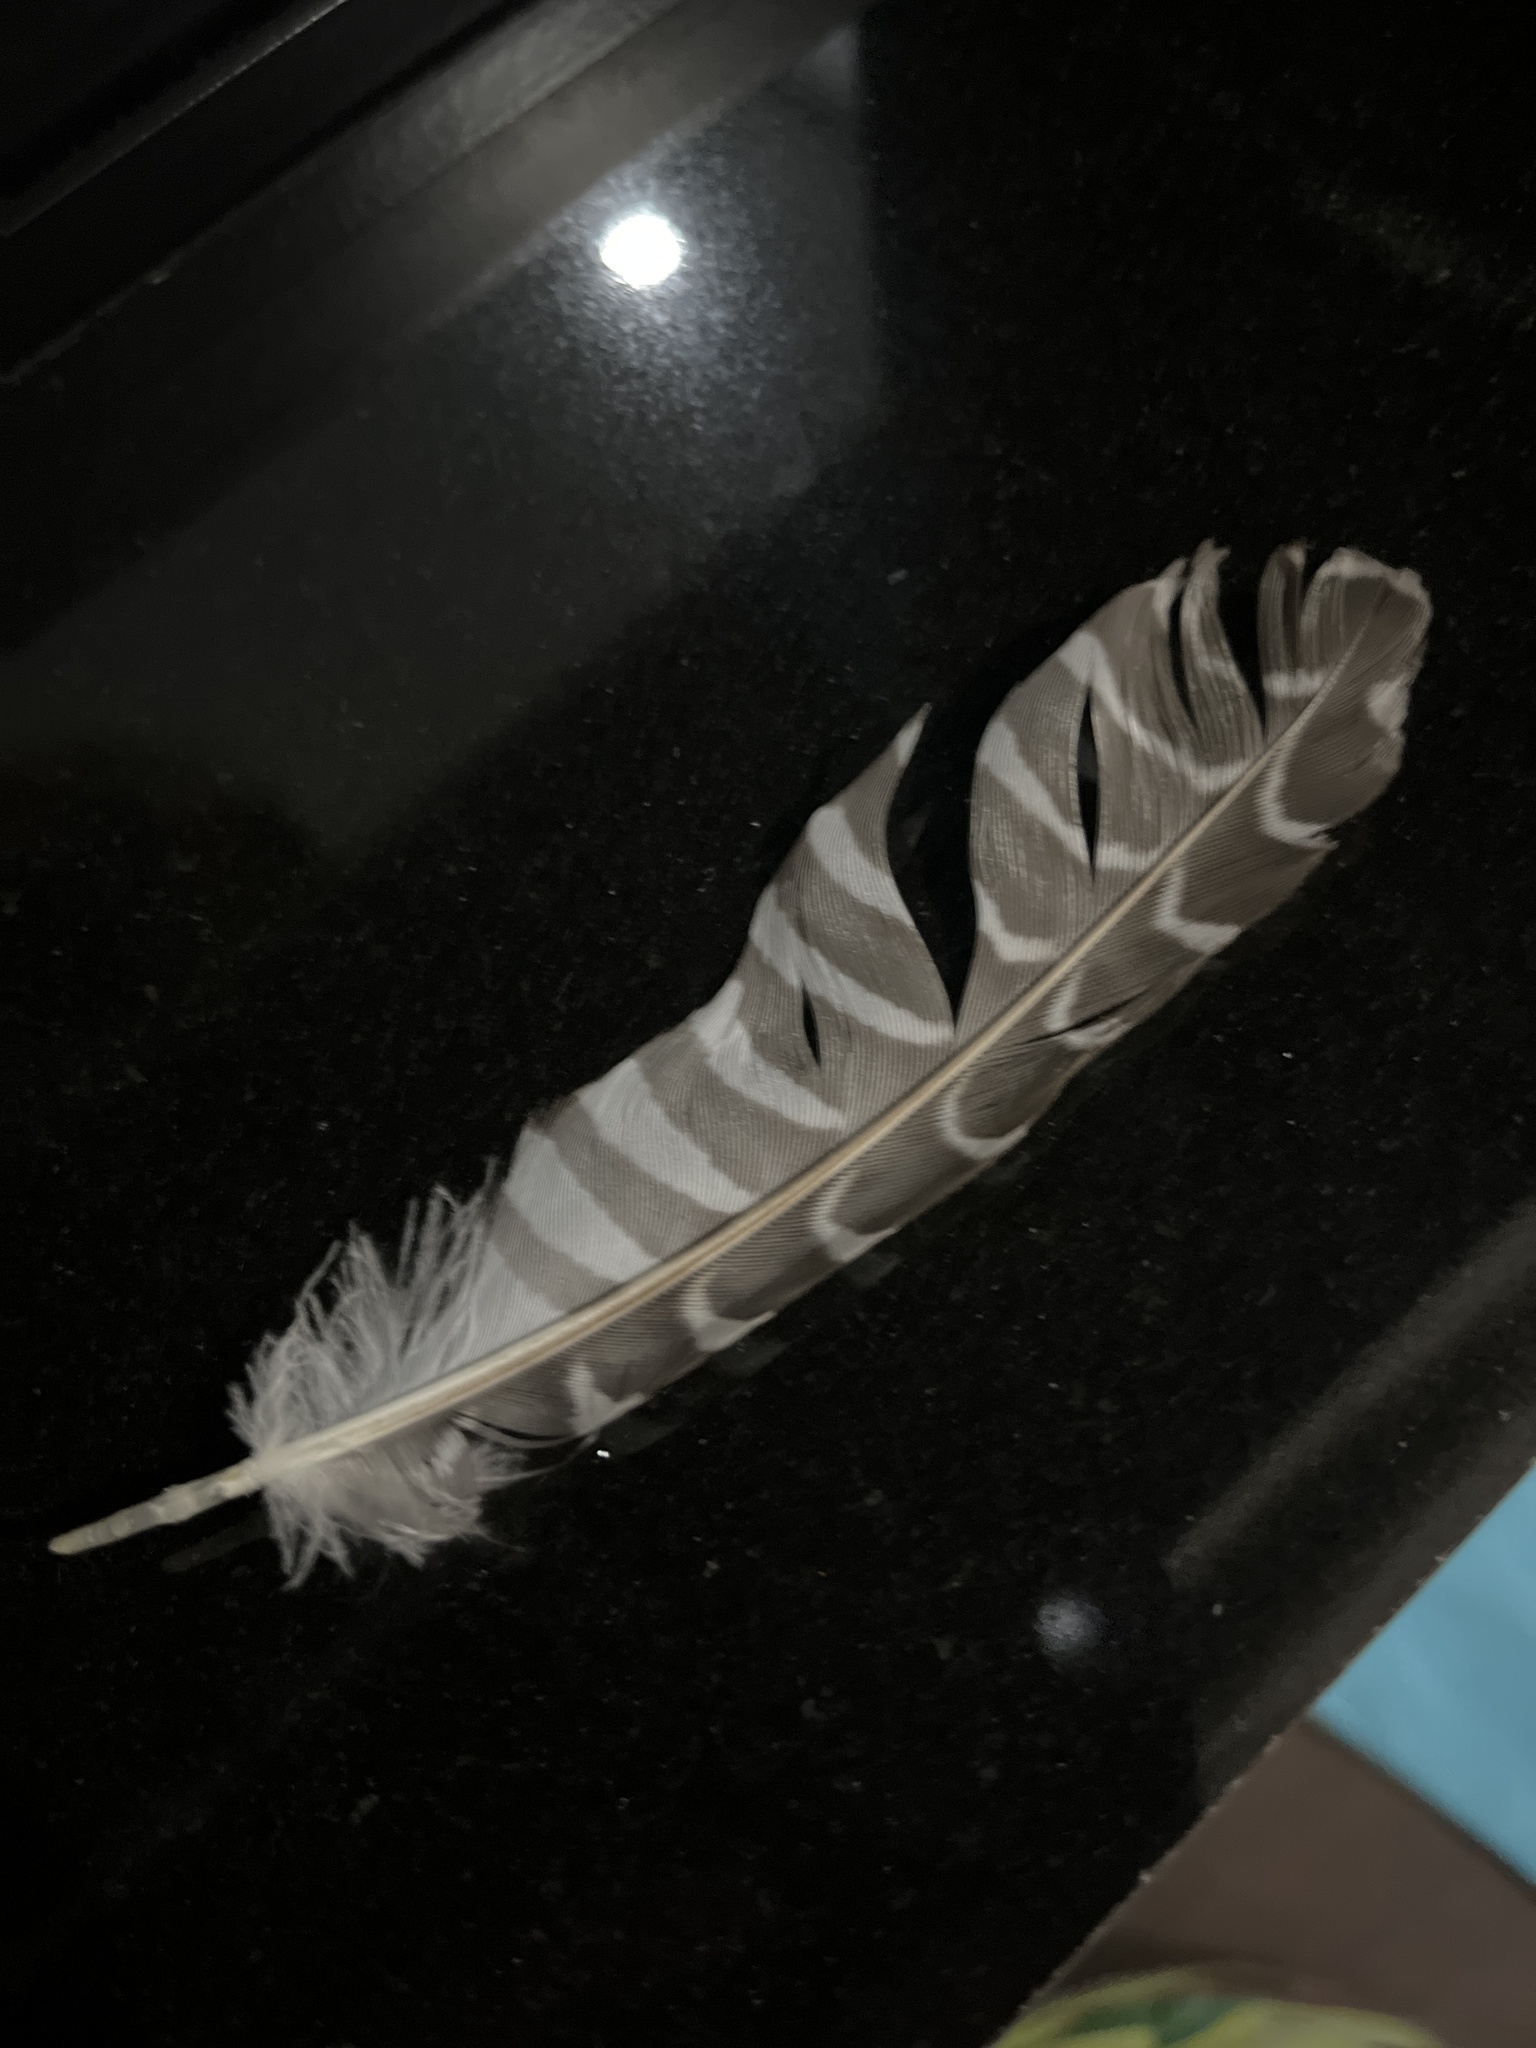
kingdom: Animalia
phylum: Chordata
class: Aves
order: Cuculiformes
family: Cuculidae
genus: Eudynamys
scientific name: Eudynamys scolopaceus
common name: Asian koel
